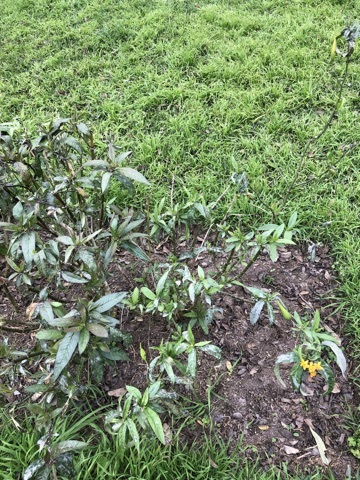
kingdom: Plantae
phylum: Tracheophyta
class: Magnoliopsida
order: Gentianales
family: Apocynaceae
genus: Asclepias
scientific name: Asclepias curassavica
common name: Bloodflower
